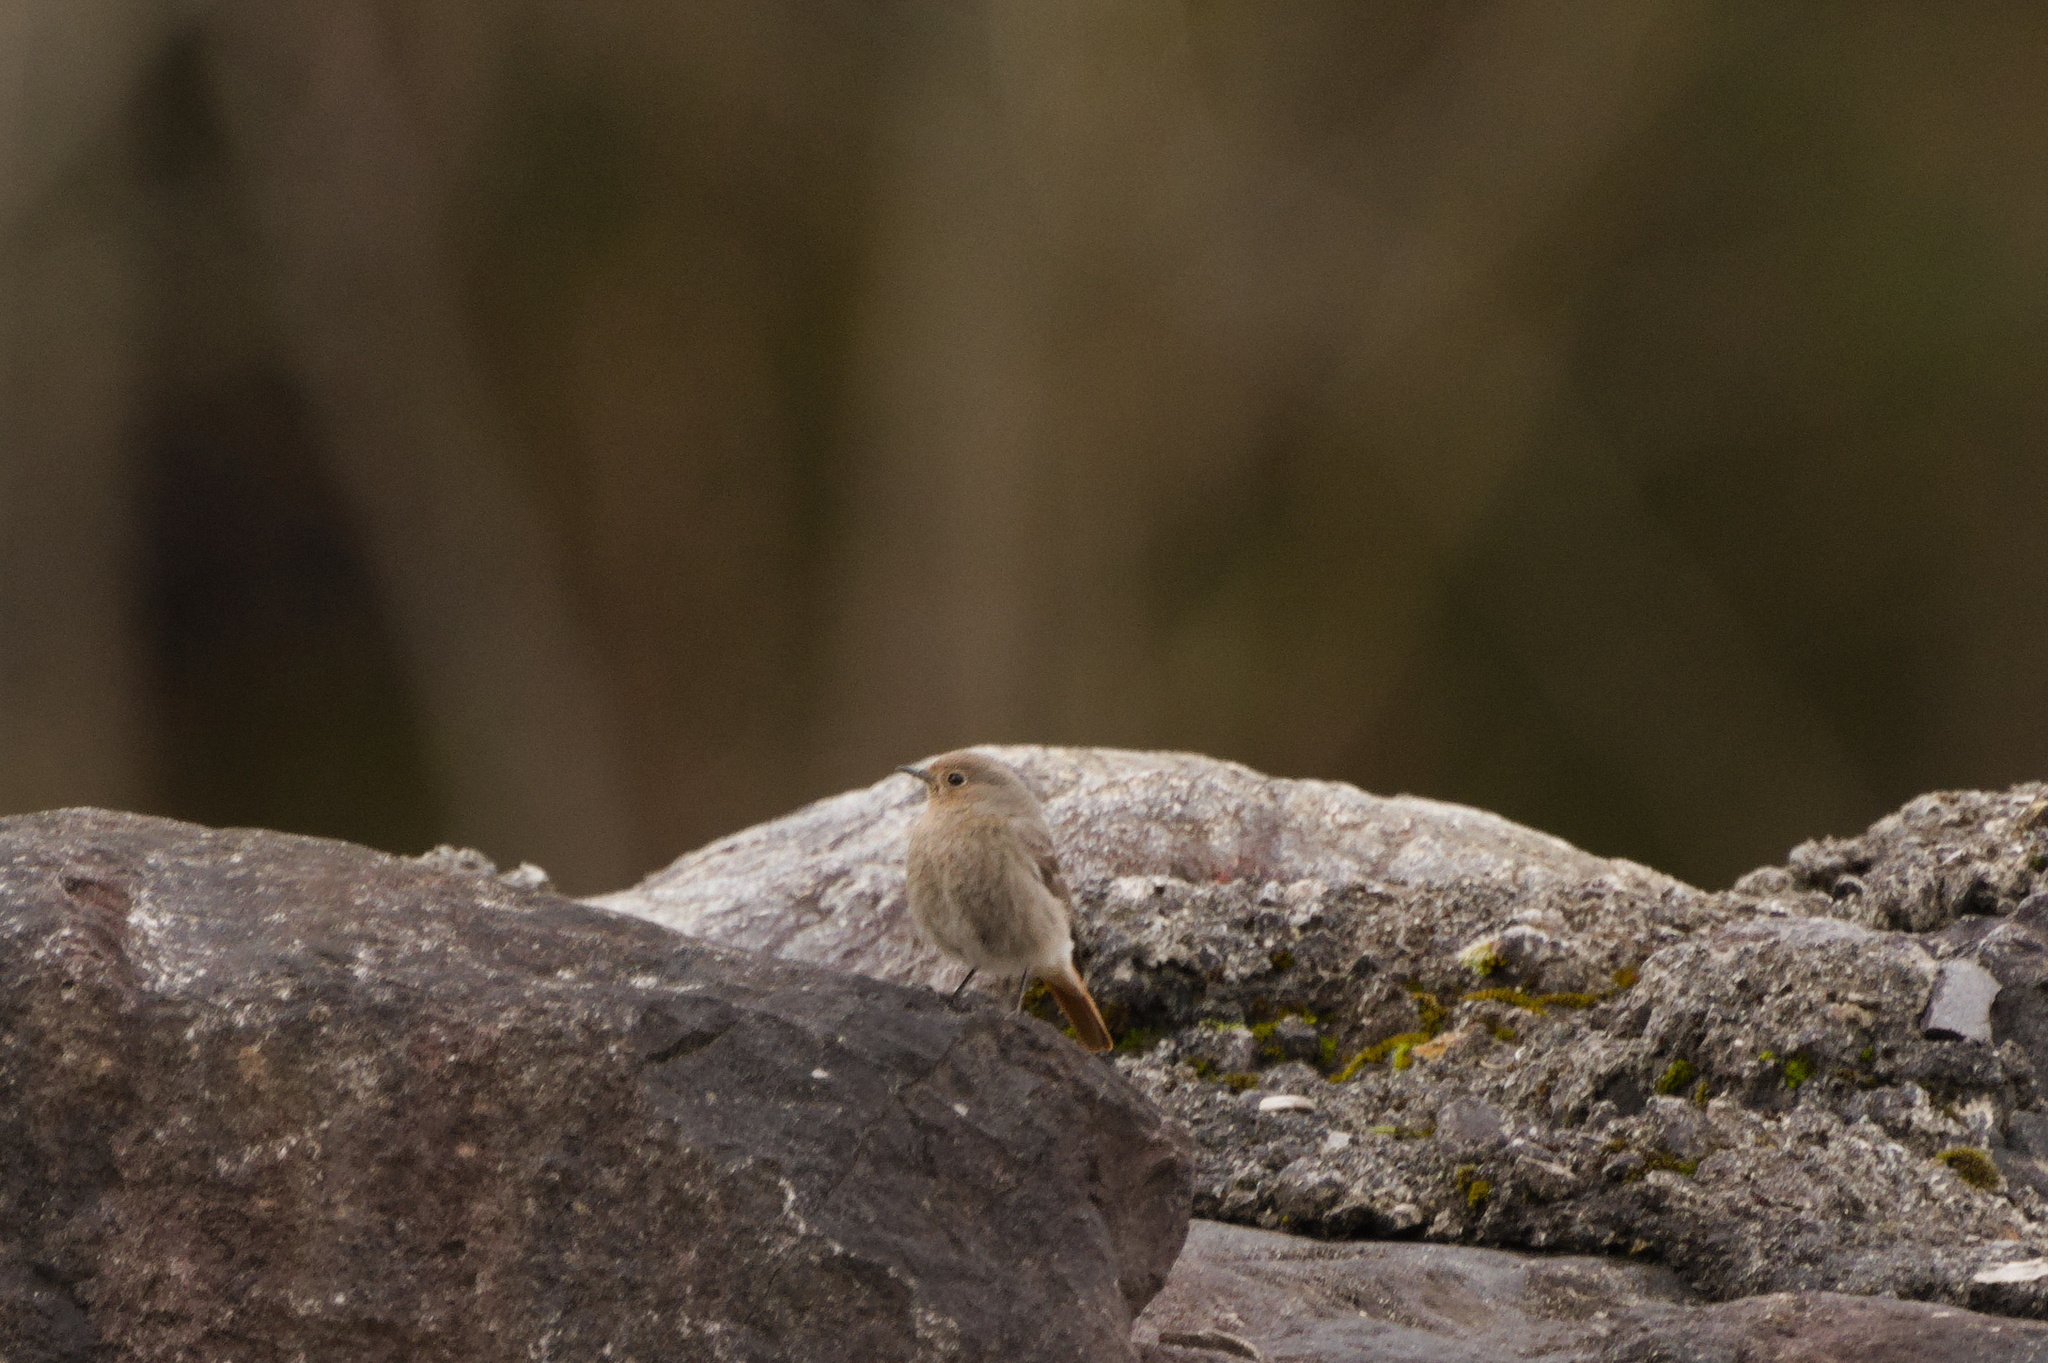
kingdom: Animalia
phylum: Chordata
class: Aves
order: Passeriformes
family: Muscicapidae
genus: Phoenicurus
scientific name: Phoenicurus ochruros
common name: Black redstart
